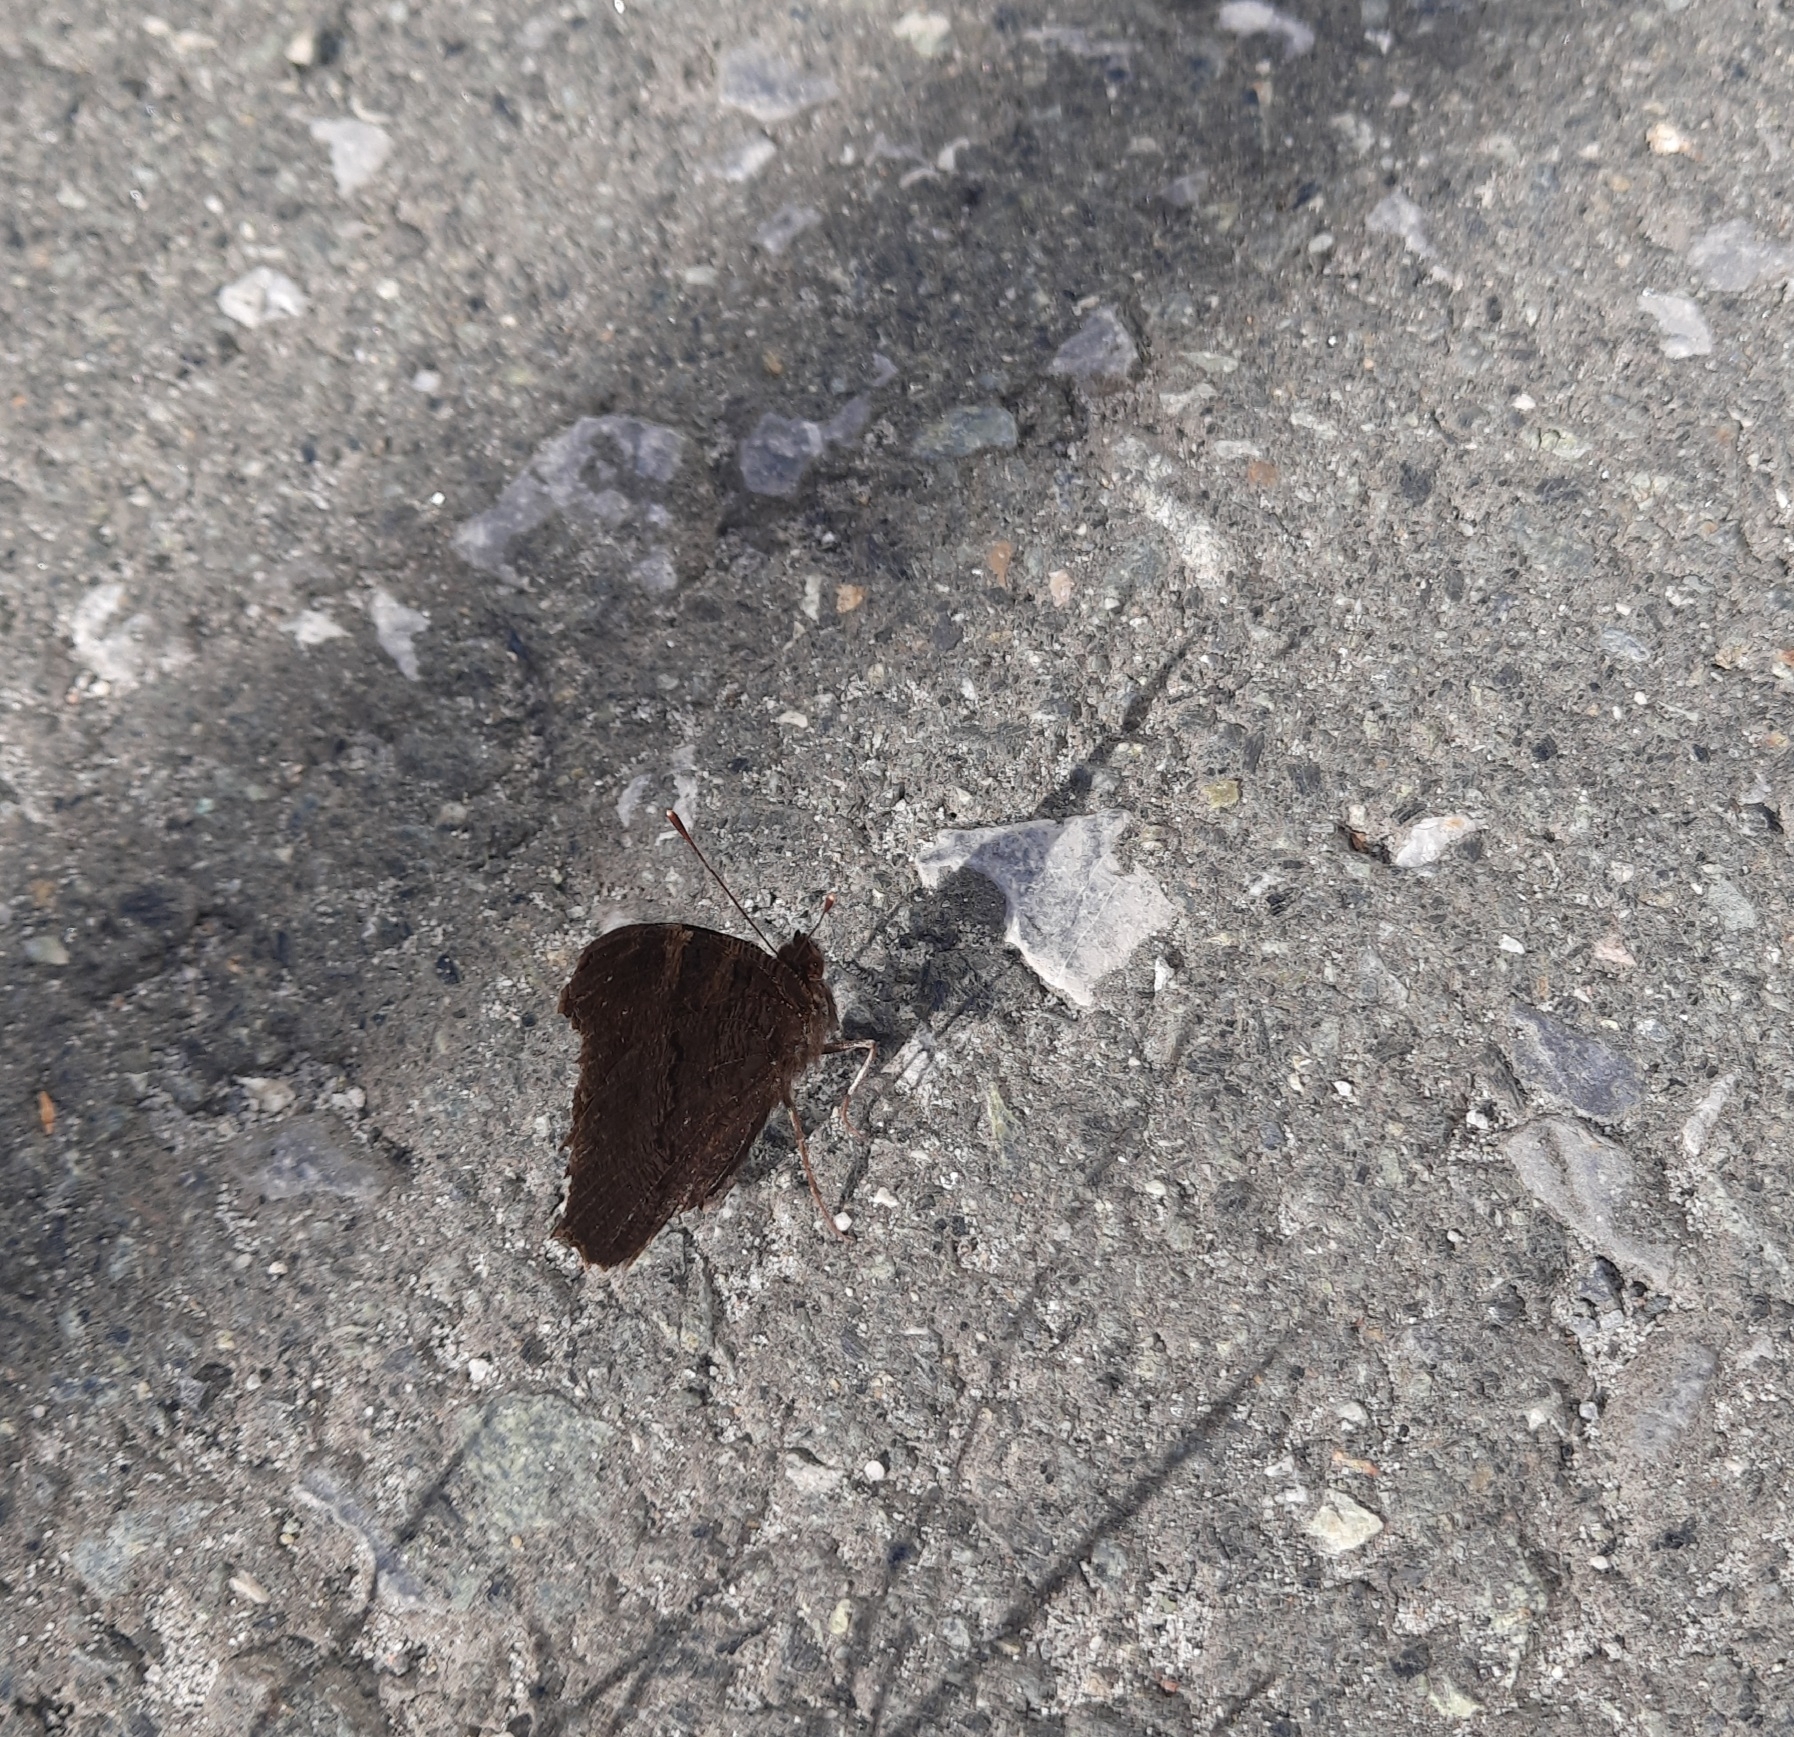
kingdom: Animalia
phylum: Arthropoda
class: Insecta
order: Lepidoptera
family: Nymphalidae
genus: Aglais
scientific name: Aglais io
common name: Peacock
